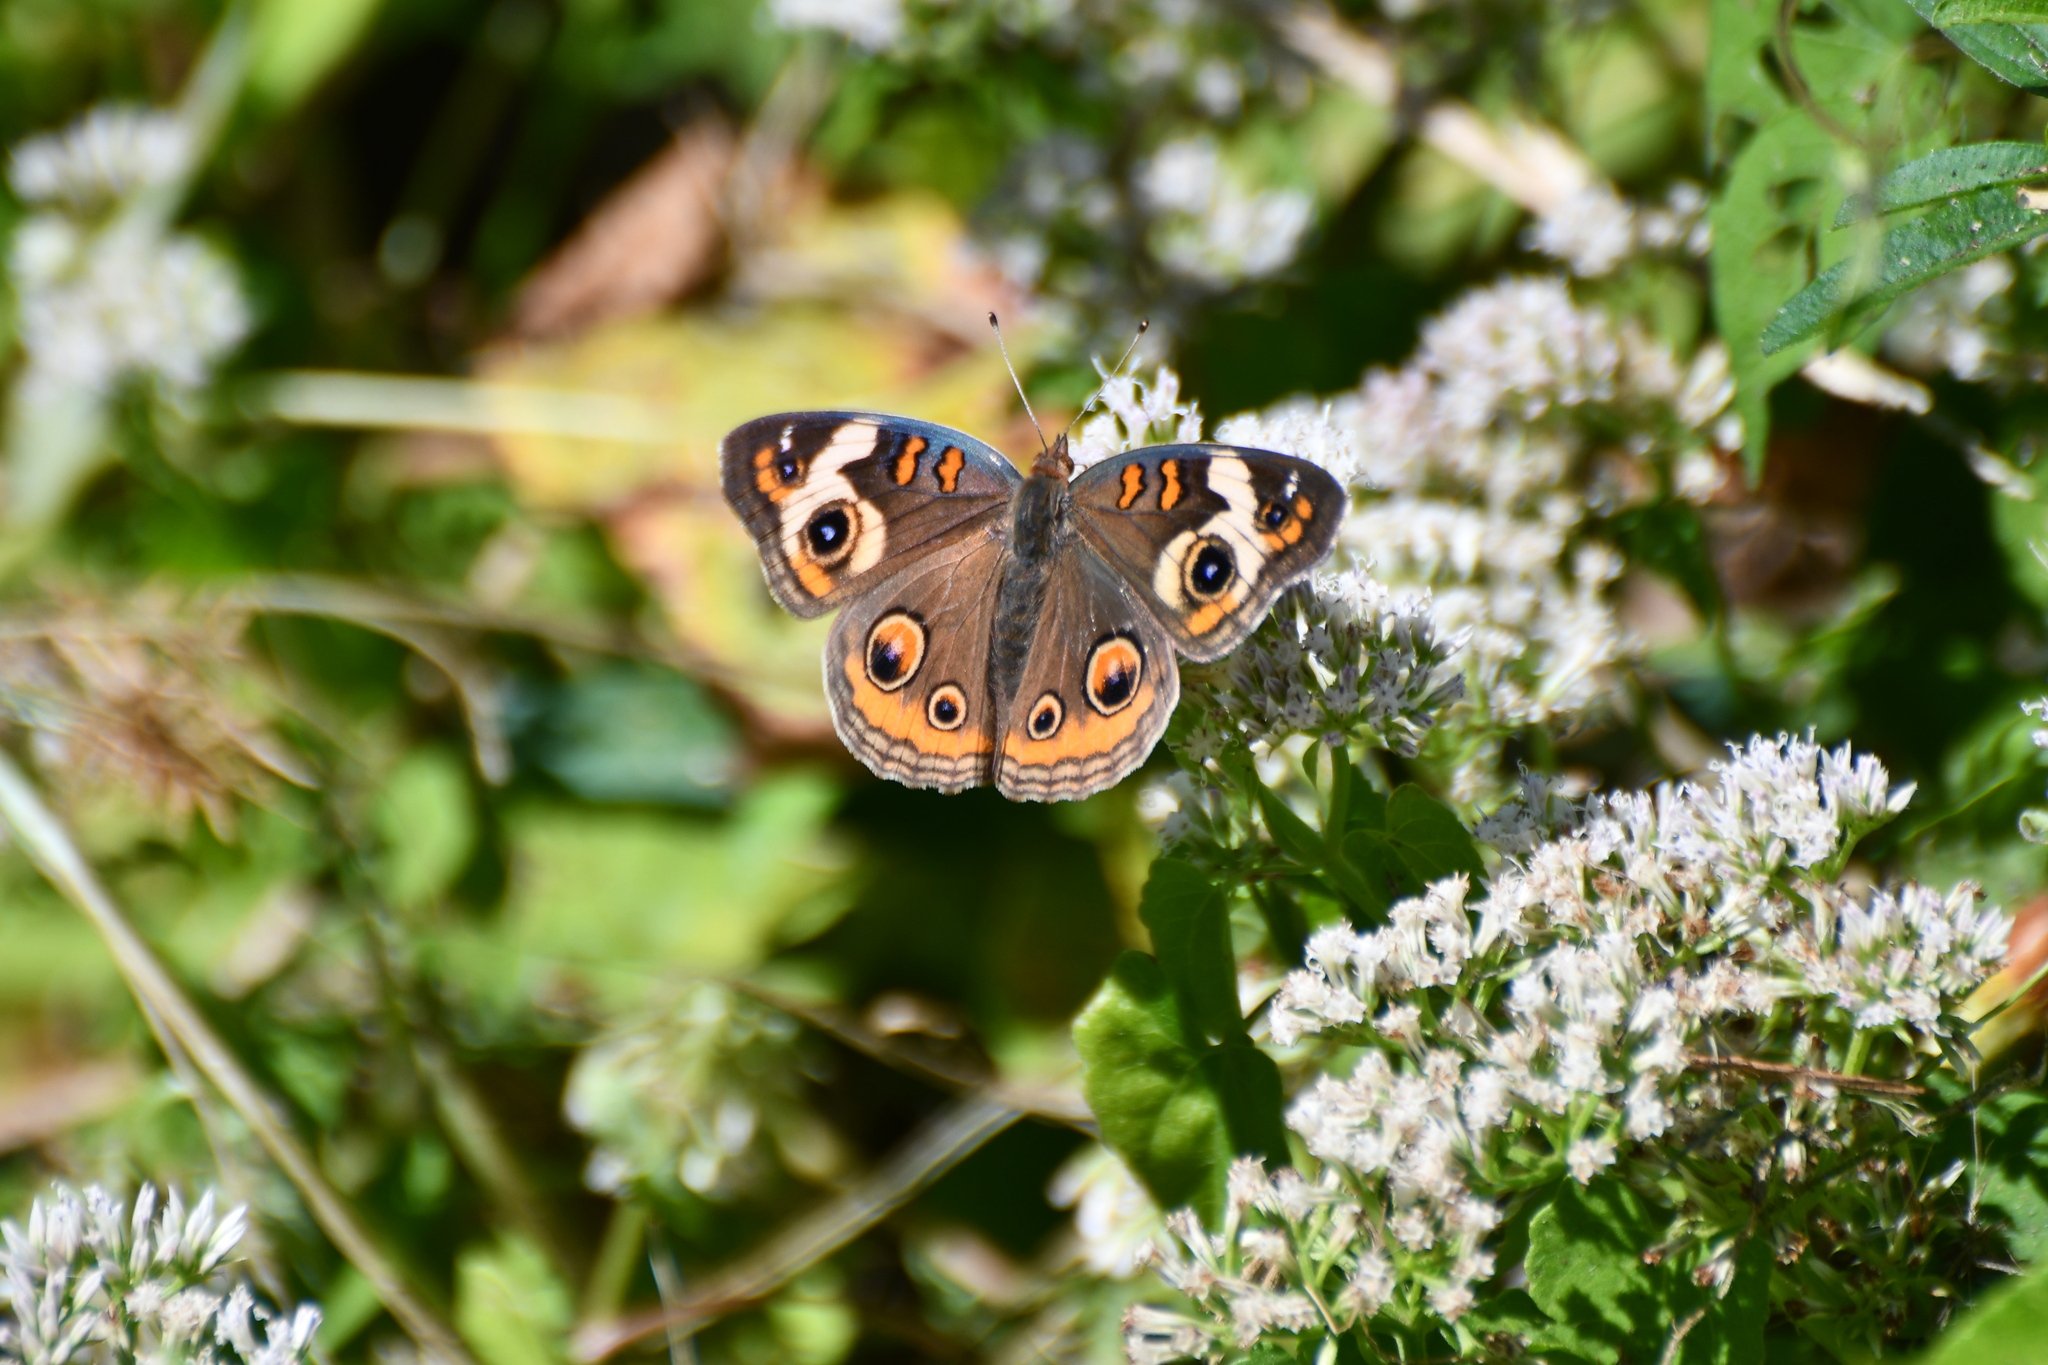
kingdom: Animalia
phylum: Arthropoda
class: Insecta
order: Lepidoptera
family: Nymphalidae
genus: Junonia
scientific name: Junonia coenia
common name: Common buckeye
